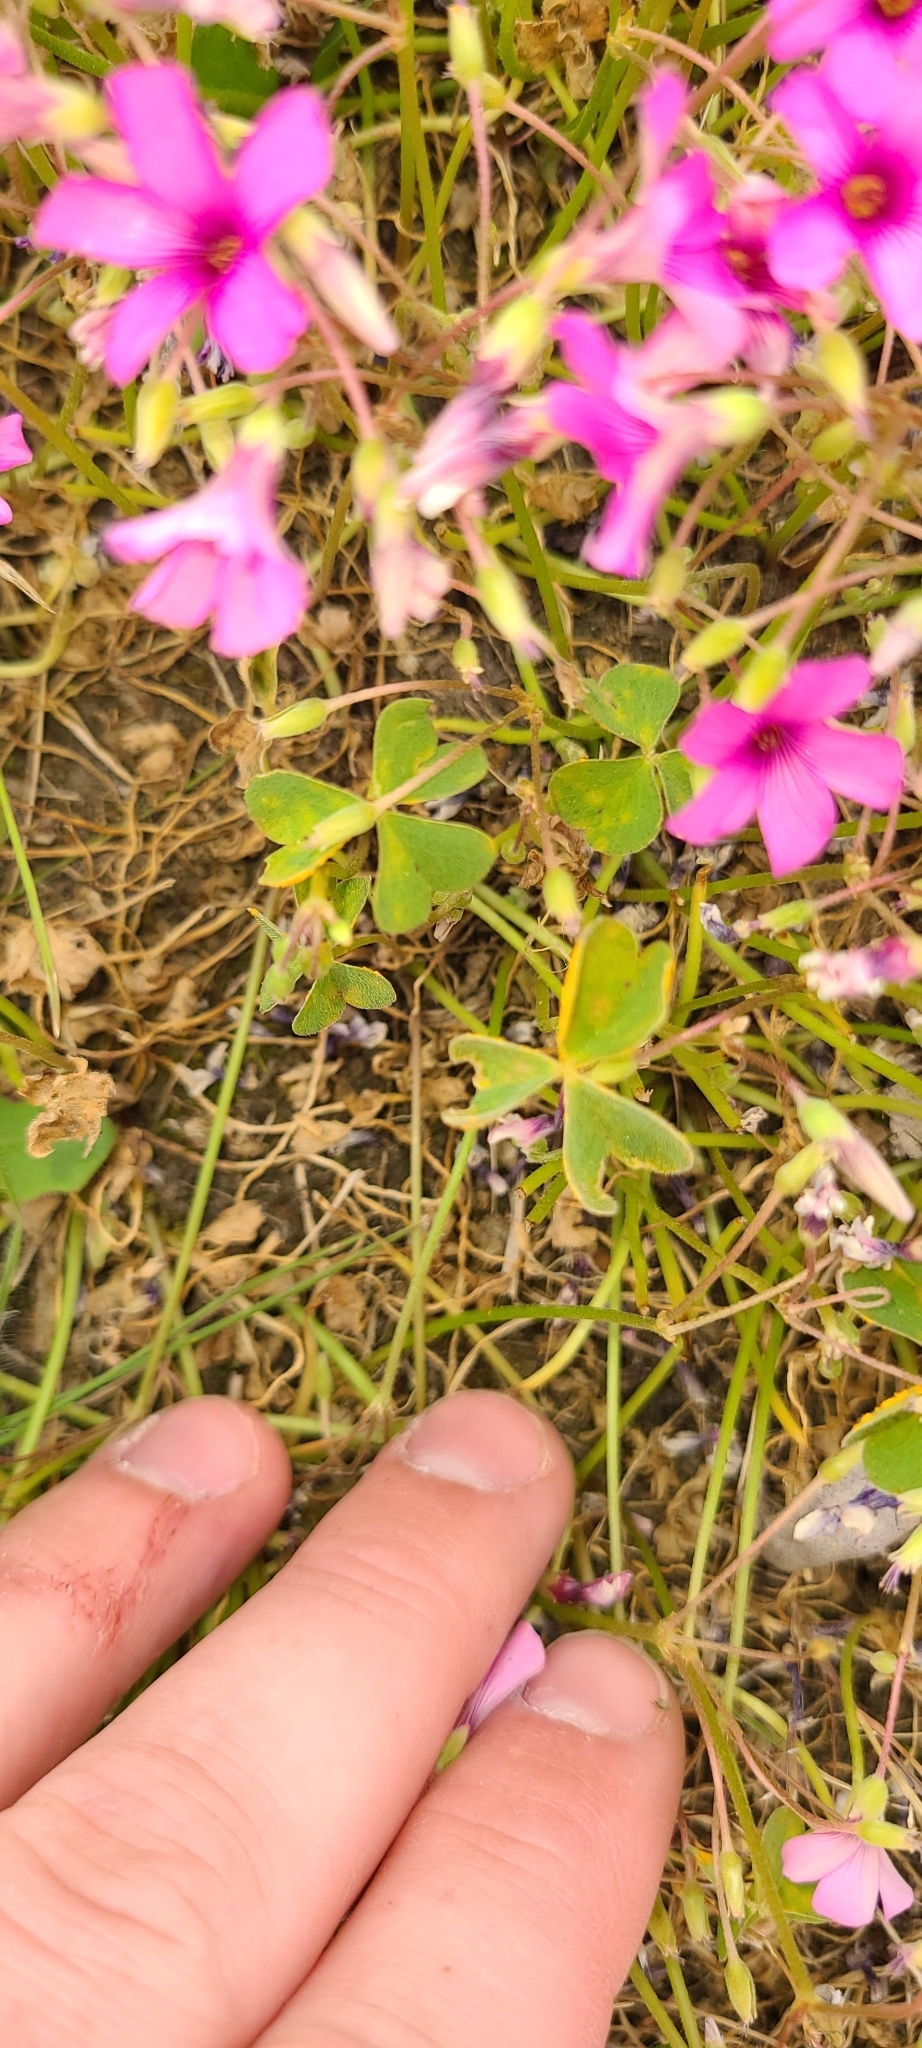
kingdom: Plantae
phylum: Tracheophyta
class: Magnoliopsida
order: Oxalidales
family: Oxalidaceae
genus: Oxalis
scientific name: Oxalis articulata
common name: Pink-sorrel
